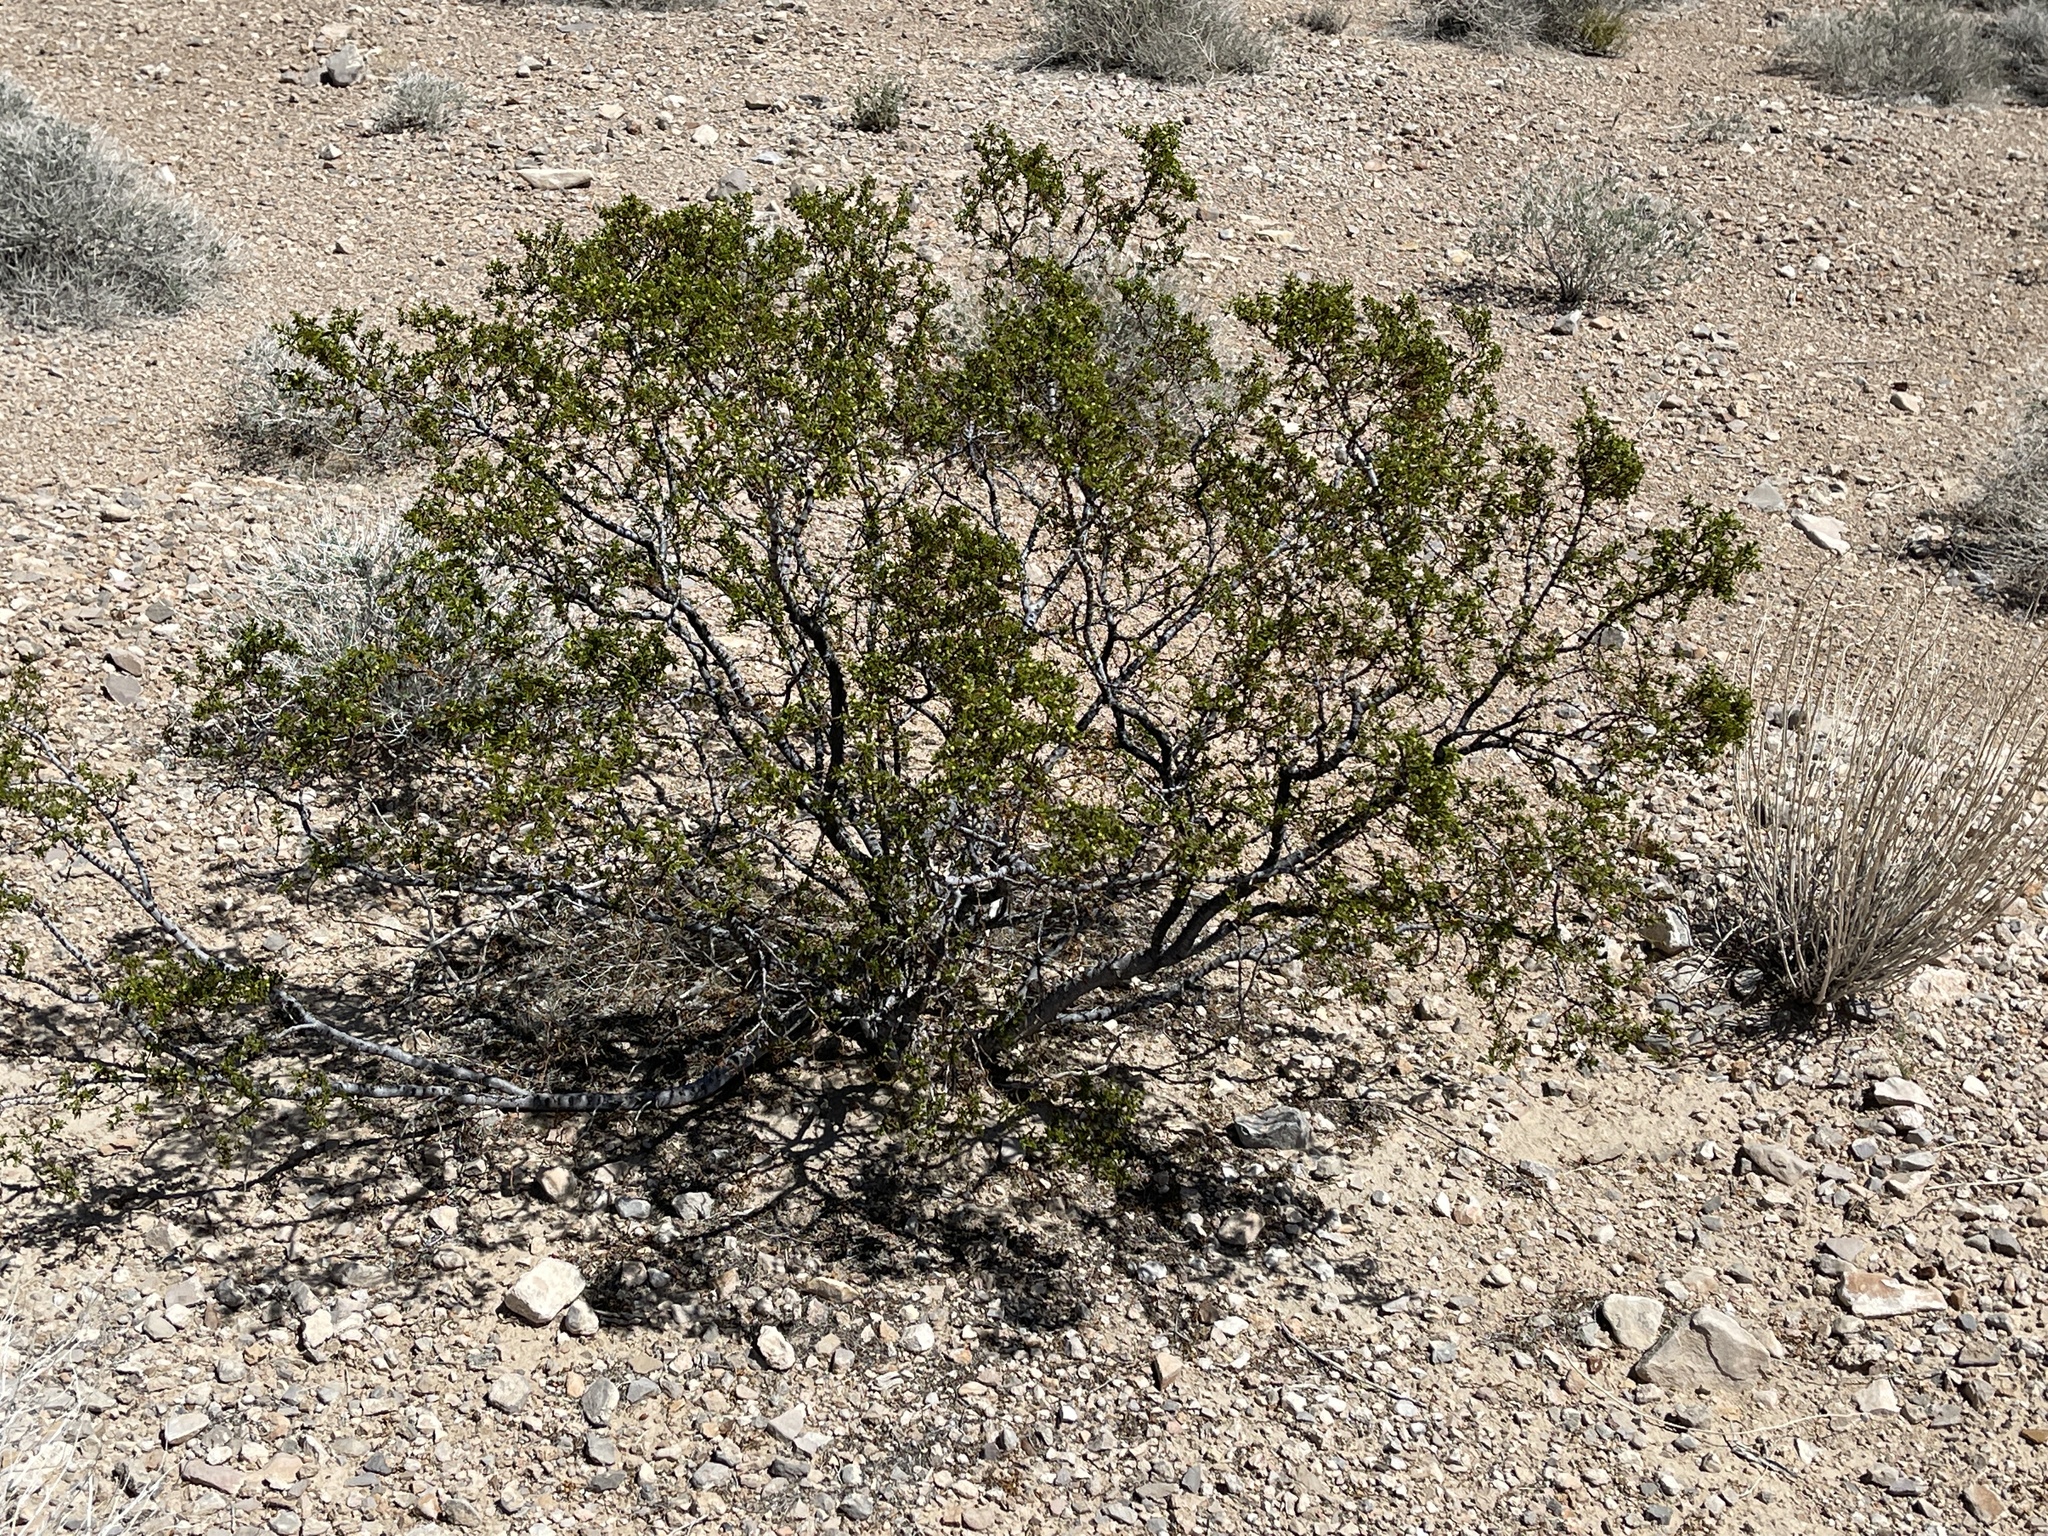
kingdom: Plantae
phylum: Tracheophyta
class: Magnoliopsida
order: Zygophyllales
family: Zygophyllaceae
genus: Larrea
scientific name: Larrea tridentata
